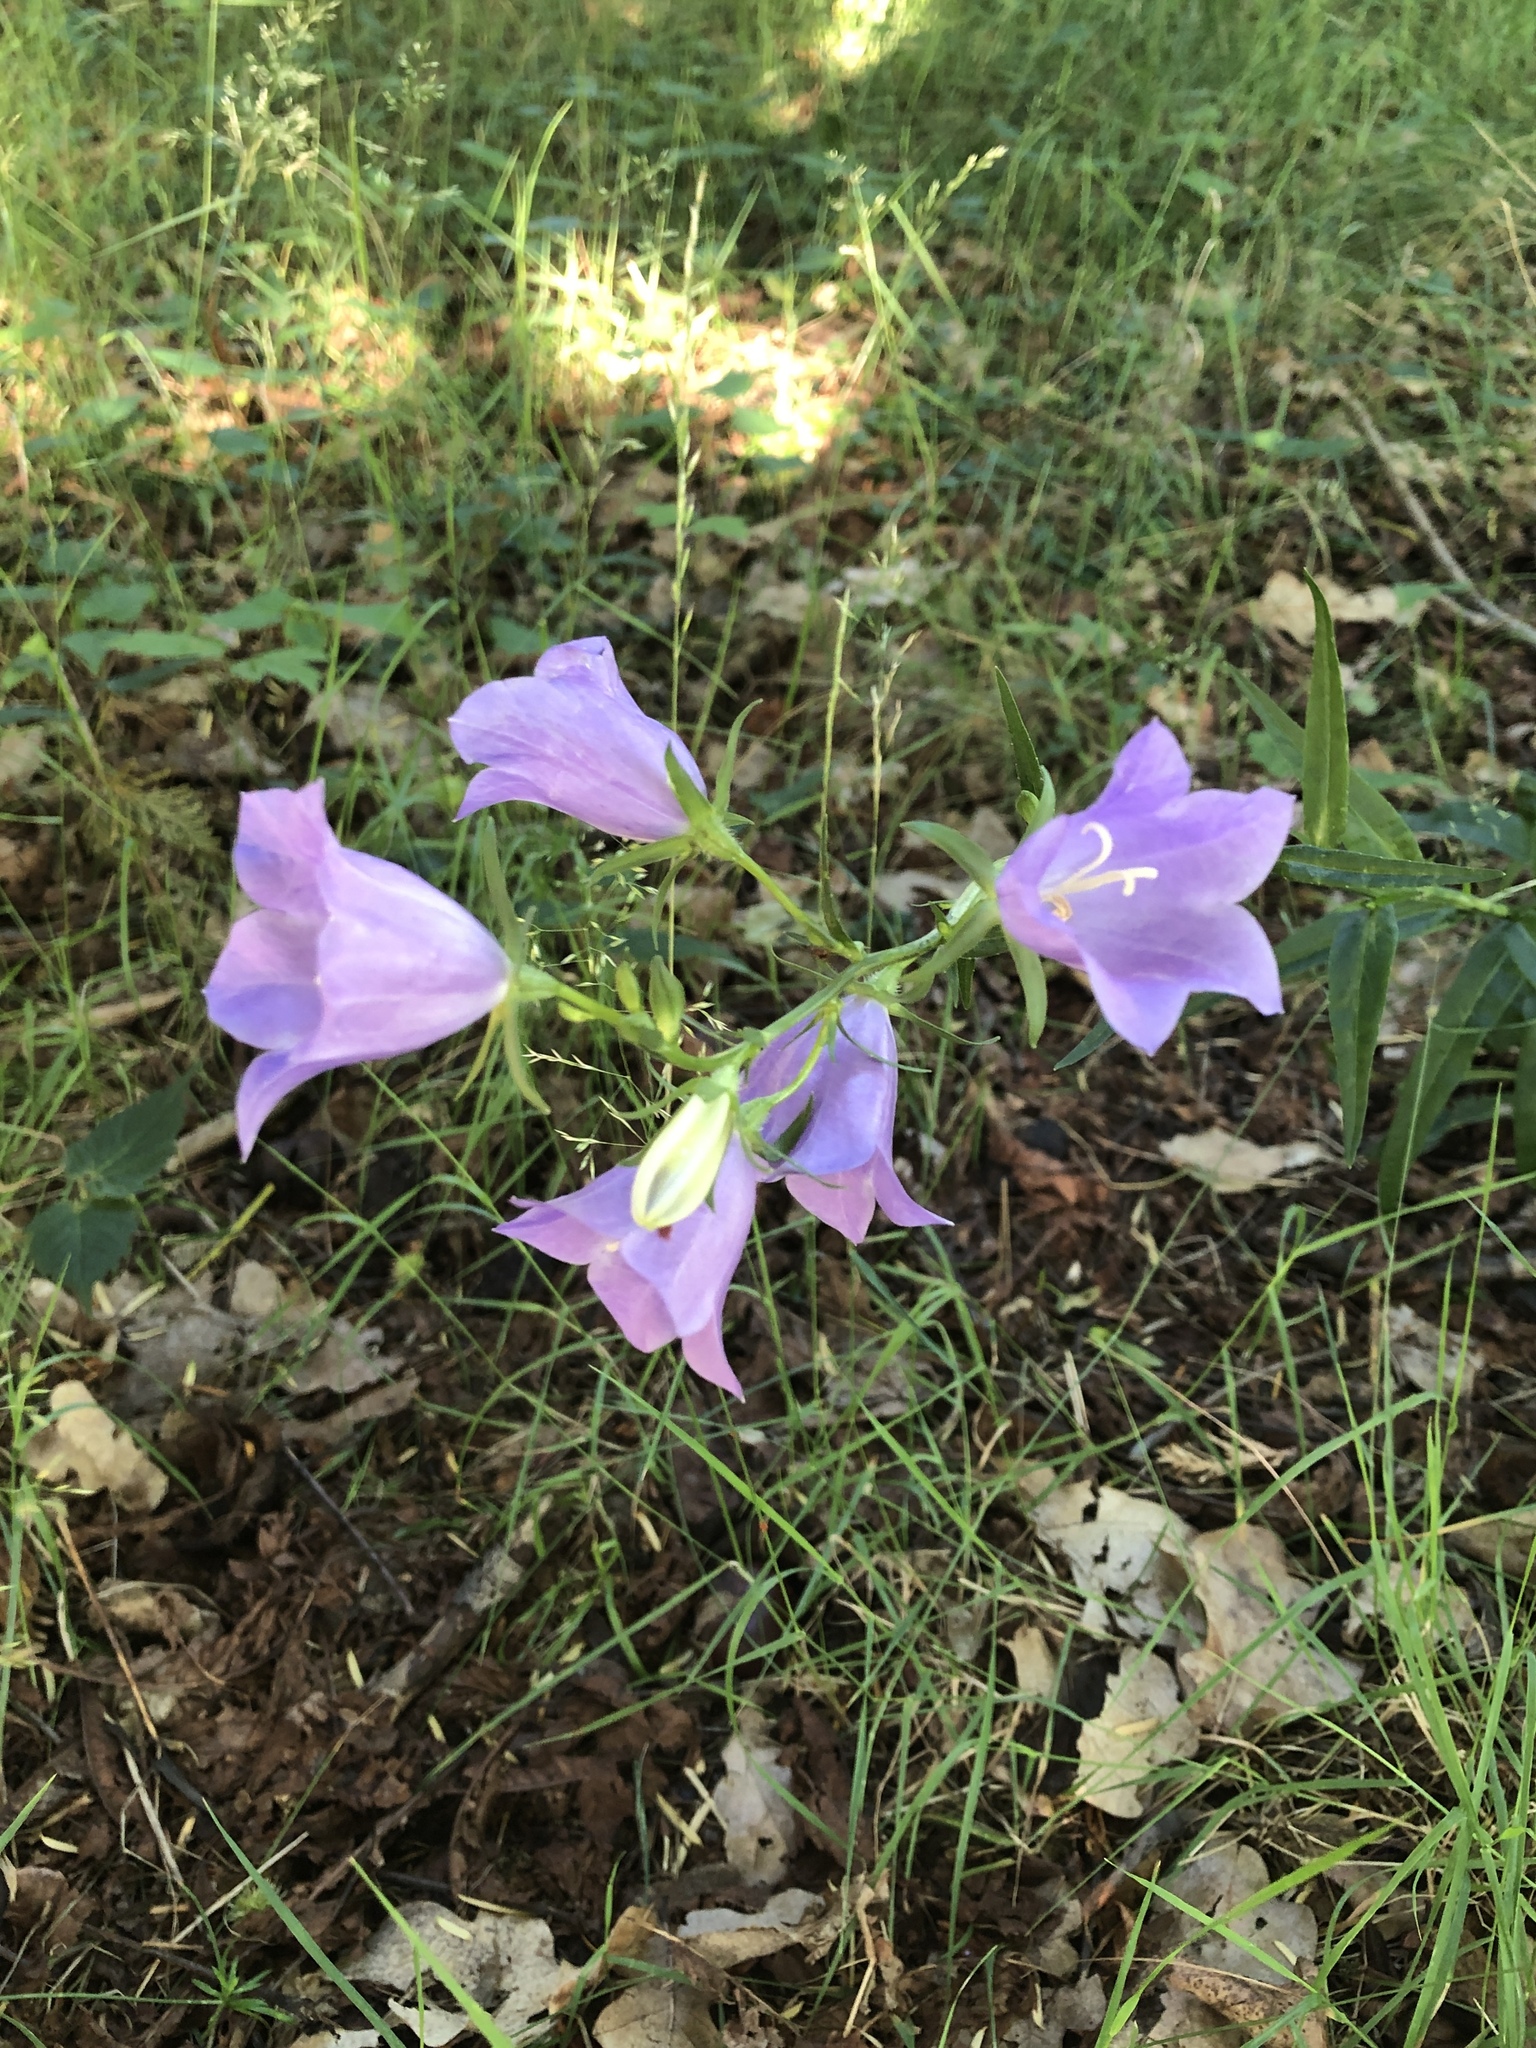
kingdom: Plantae
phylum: Tracheophyta
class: Magnoliopsida
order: Asterales
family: Campanulaceae
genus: Campanula
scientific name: Campanula persicifolia
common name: Peach-leaved bellflower
